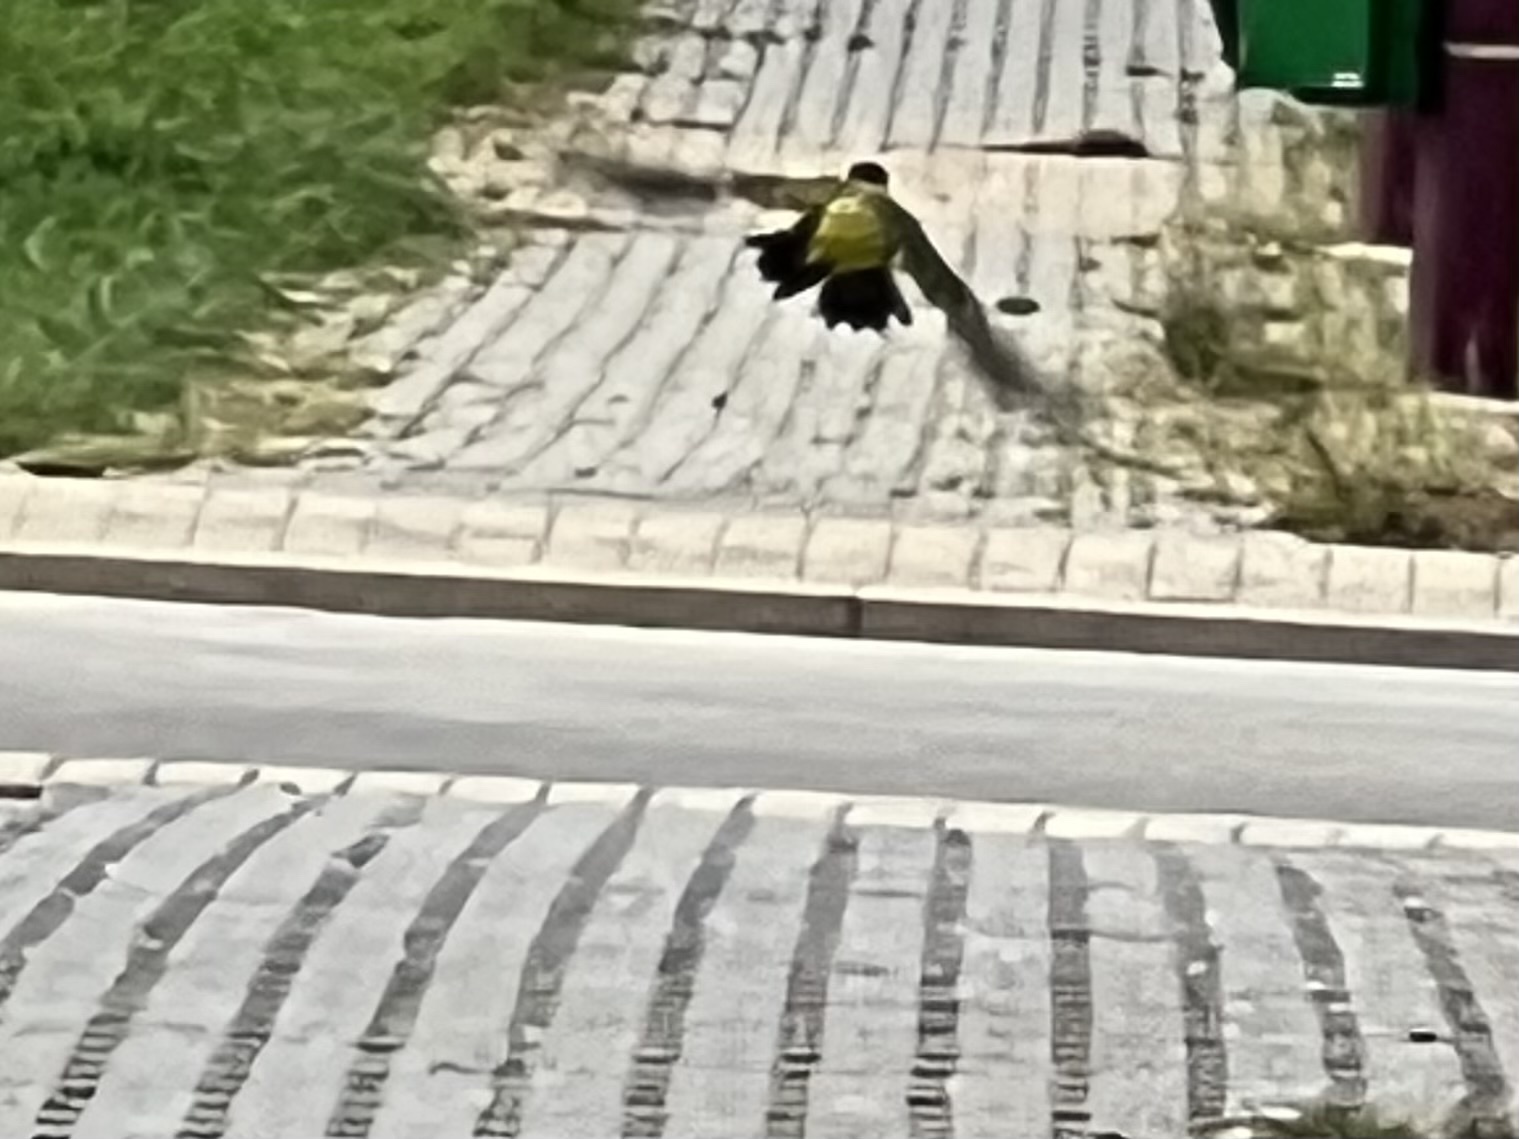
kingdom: Animalia
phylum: Chordata
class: Aves
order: Piciformes
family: Picidae
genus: Picus
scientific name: Picus viridis
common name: European green woodpecker
